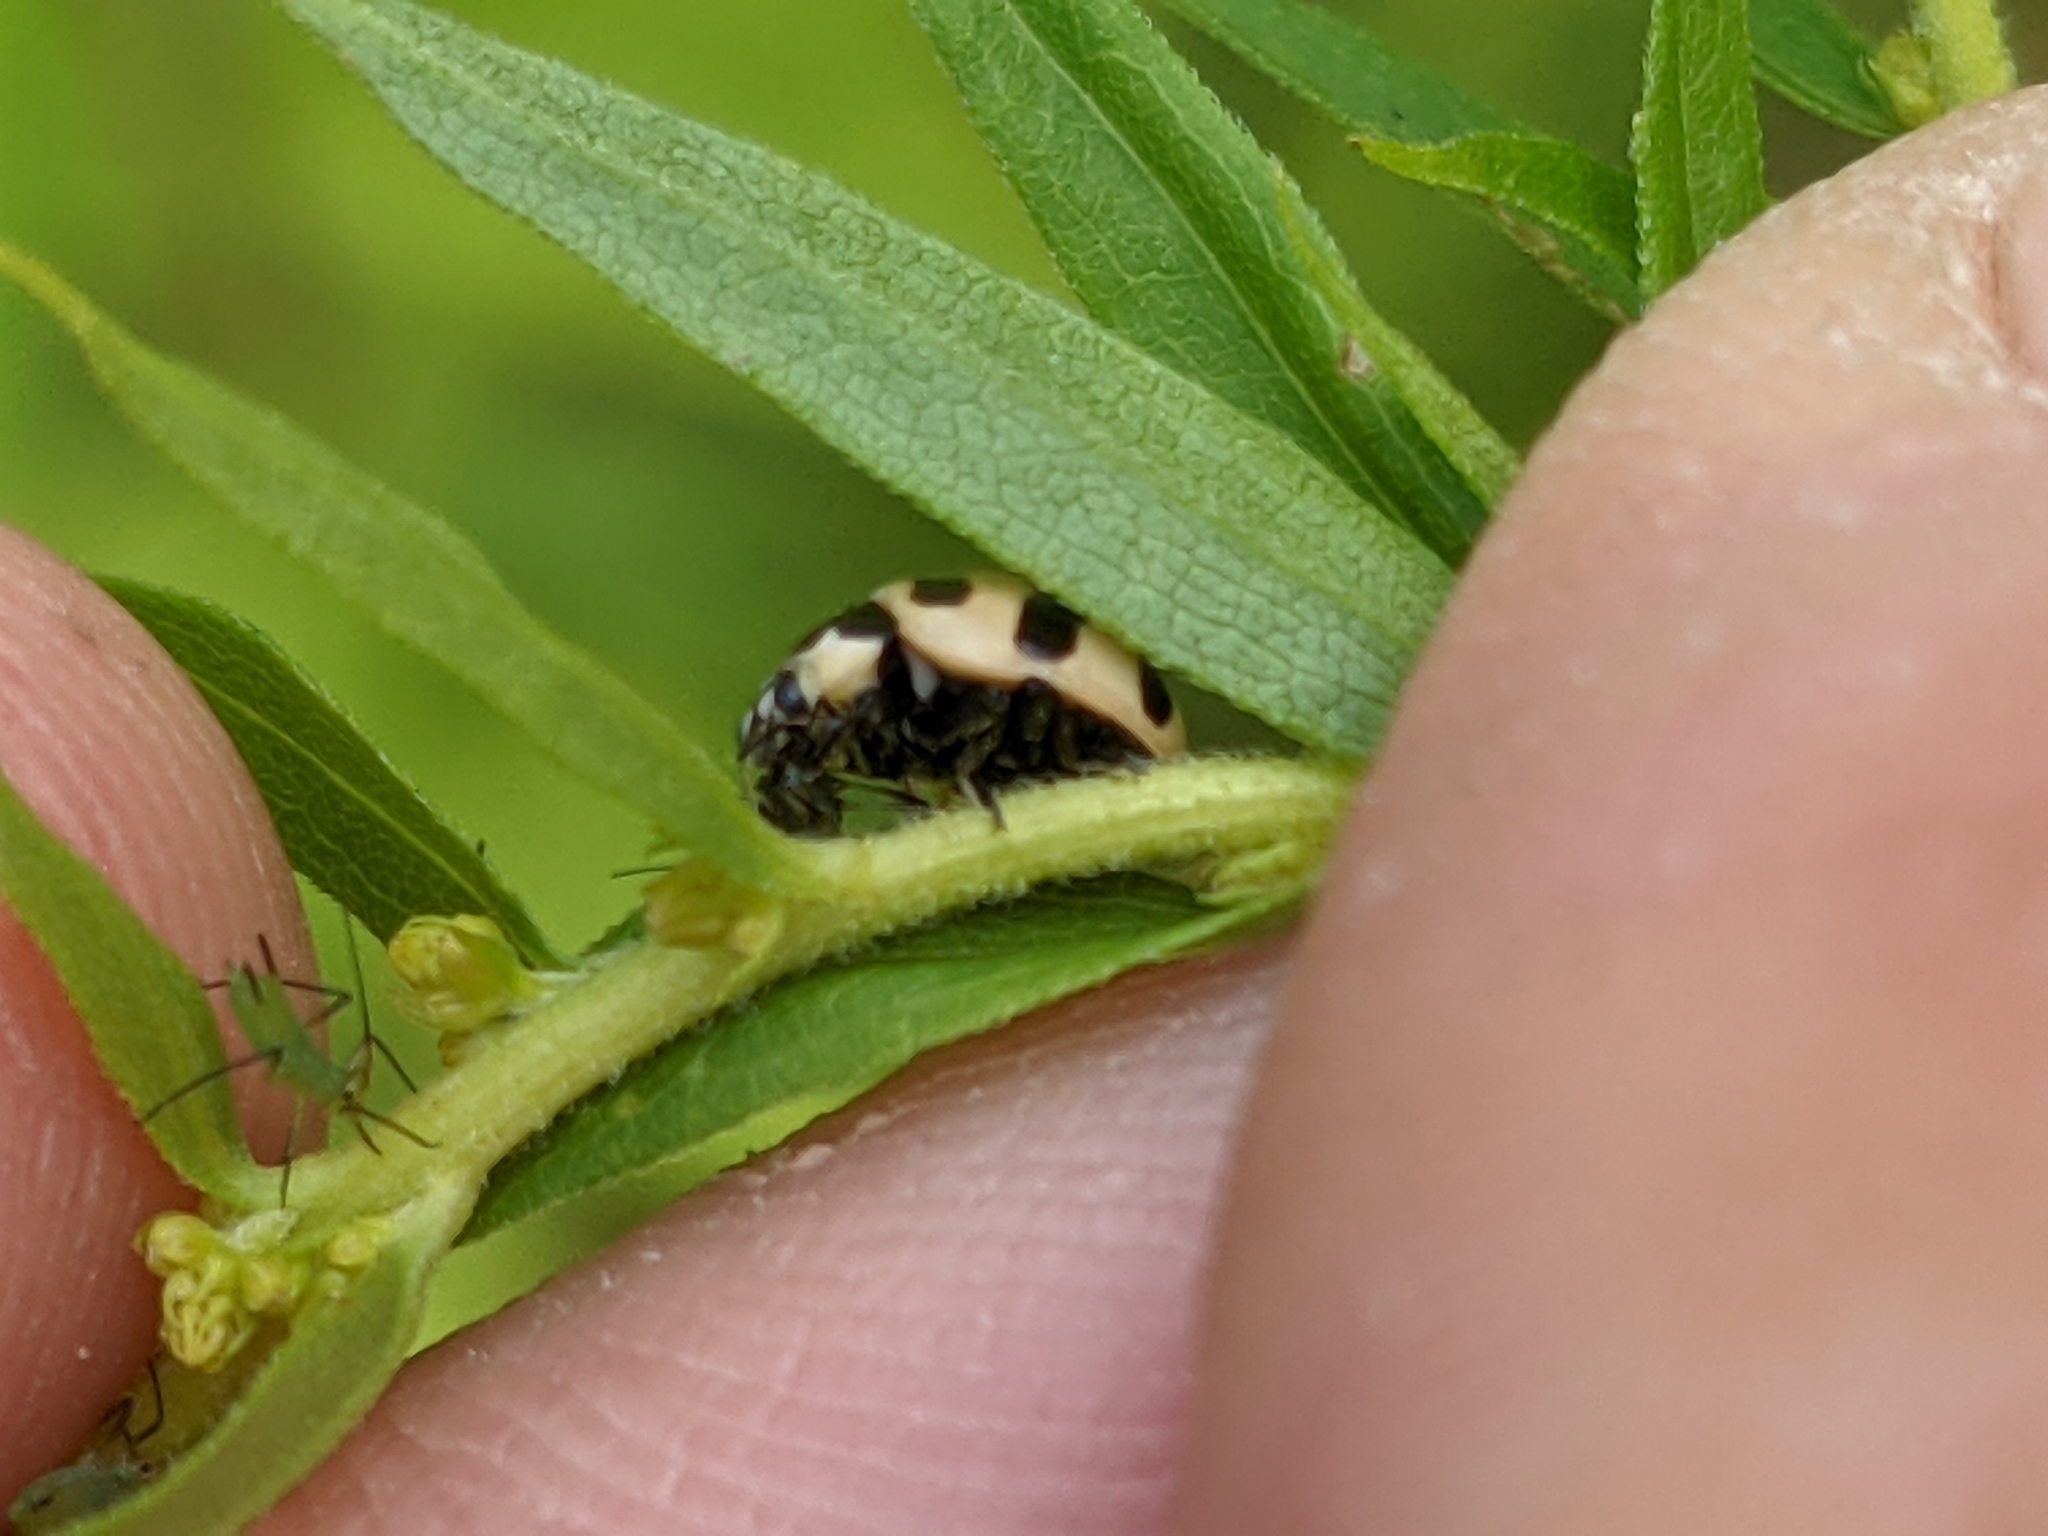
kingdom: Animalia
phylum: Arthropoda
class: Insecta
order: Coleoptera
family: Coccinellidae
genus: Coccinella
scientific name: Coccinella trifasciata
